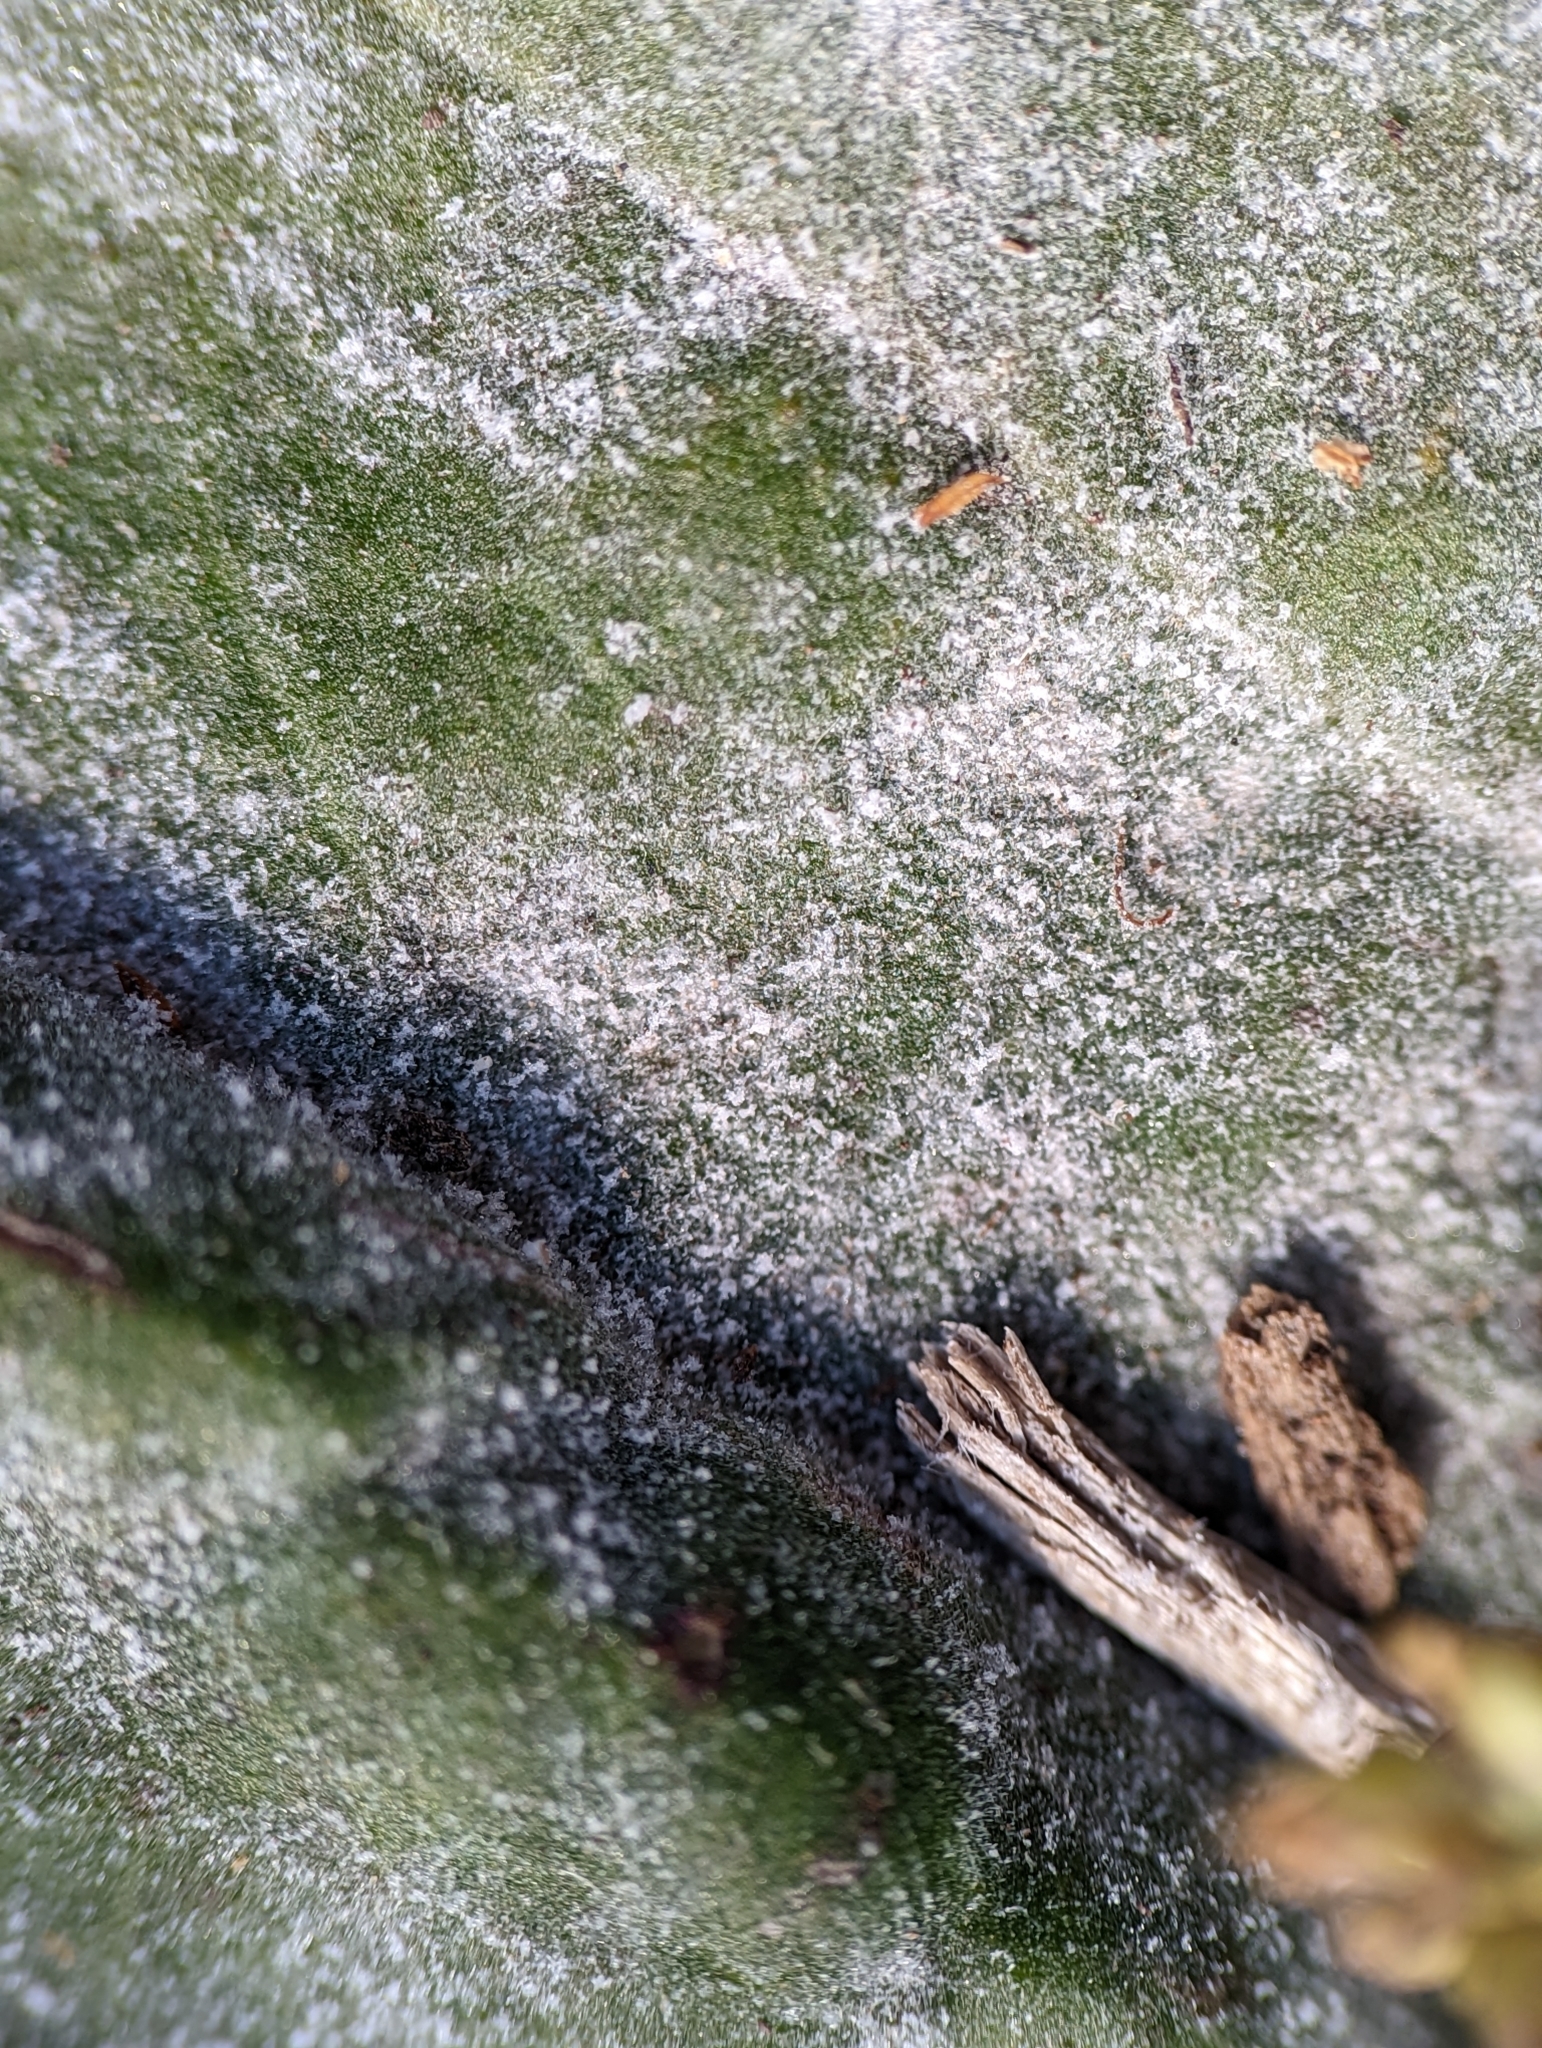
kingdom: Fungi
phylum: Ascomycota
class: Leotiomycetes
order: Helotiales
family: Erysiphaceae
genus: Golovinomyces
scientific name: Golovinomyces sordidus
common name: Plantain mildew
